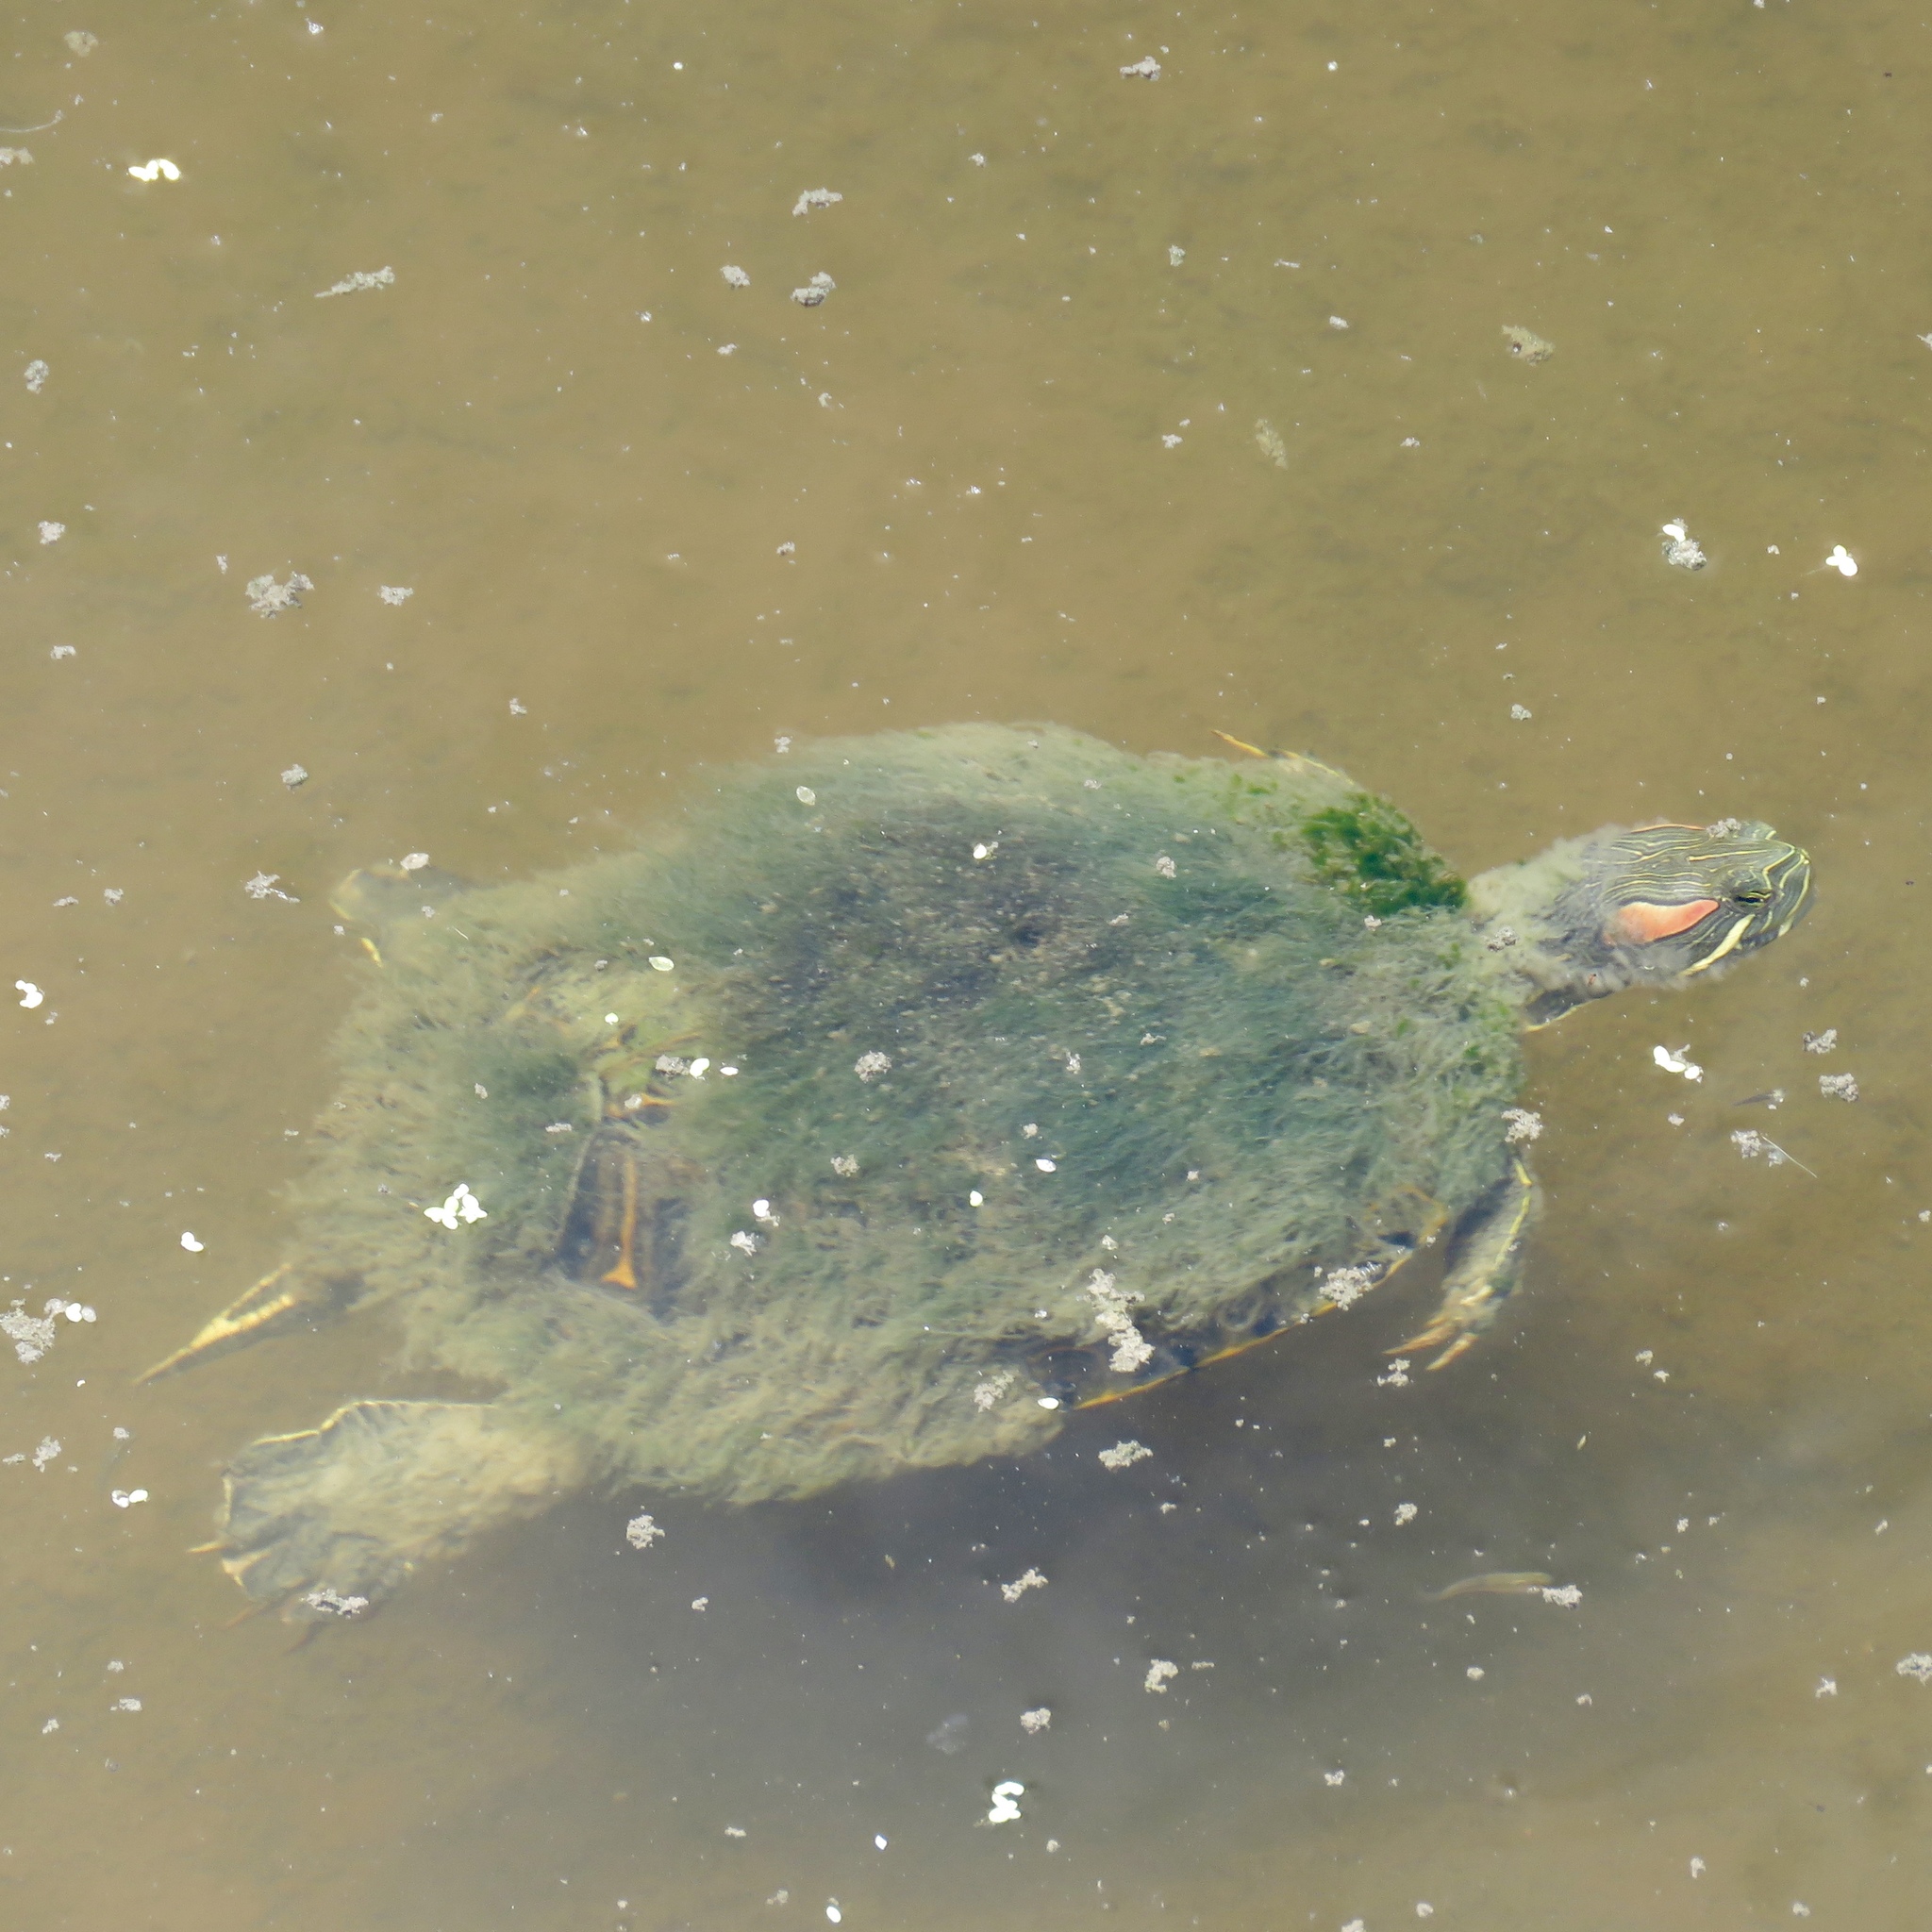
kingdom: Animalia
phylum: Chordata
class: Testudines
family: Emydidae
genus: Trachemys
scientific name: Trachemys scripta
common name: Slider
